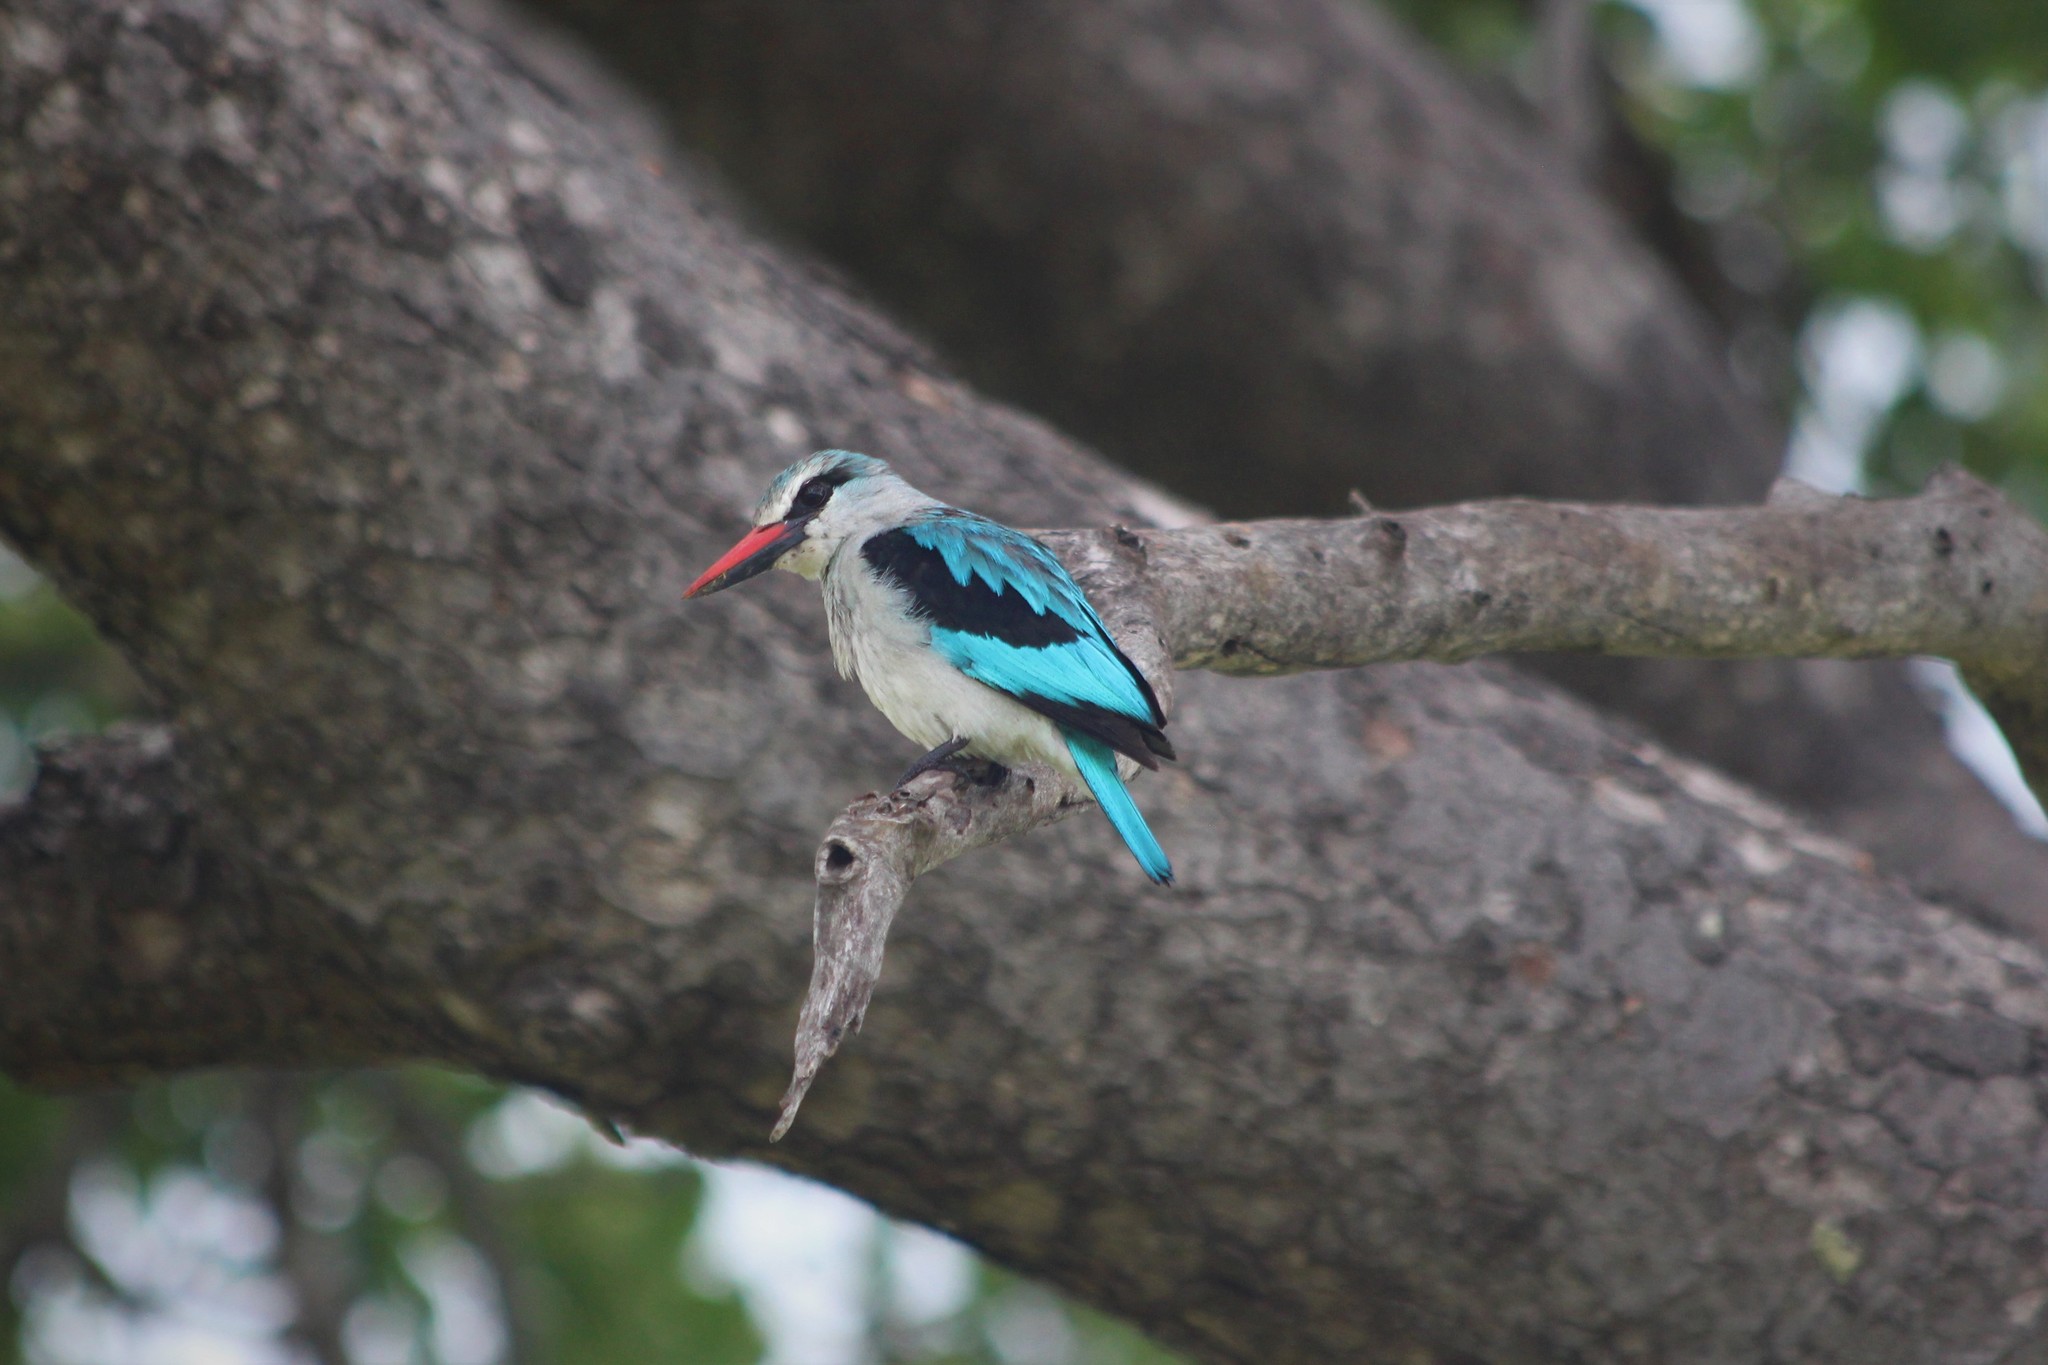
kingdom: Animalia
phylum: Chordata
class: Aves
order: Coraciiformes
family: Alcedinidae
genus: Halcyon
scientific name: Halcyon senegalensis
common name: Woodland kingfisher
